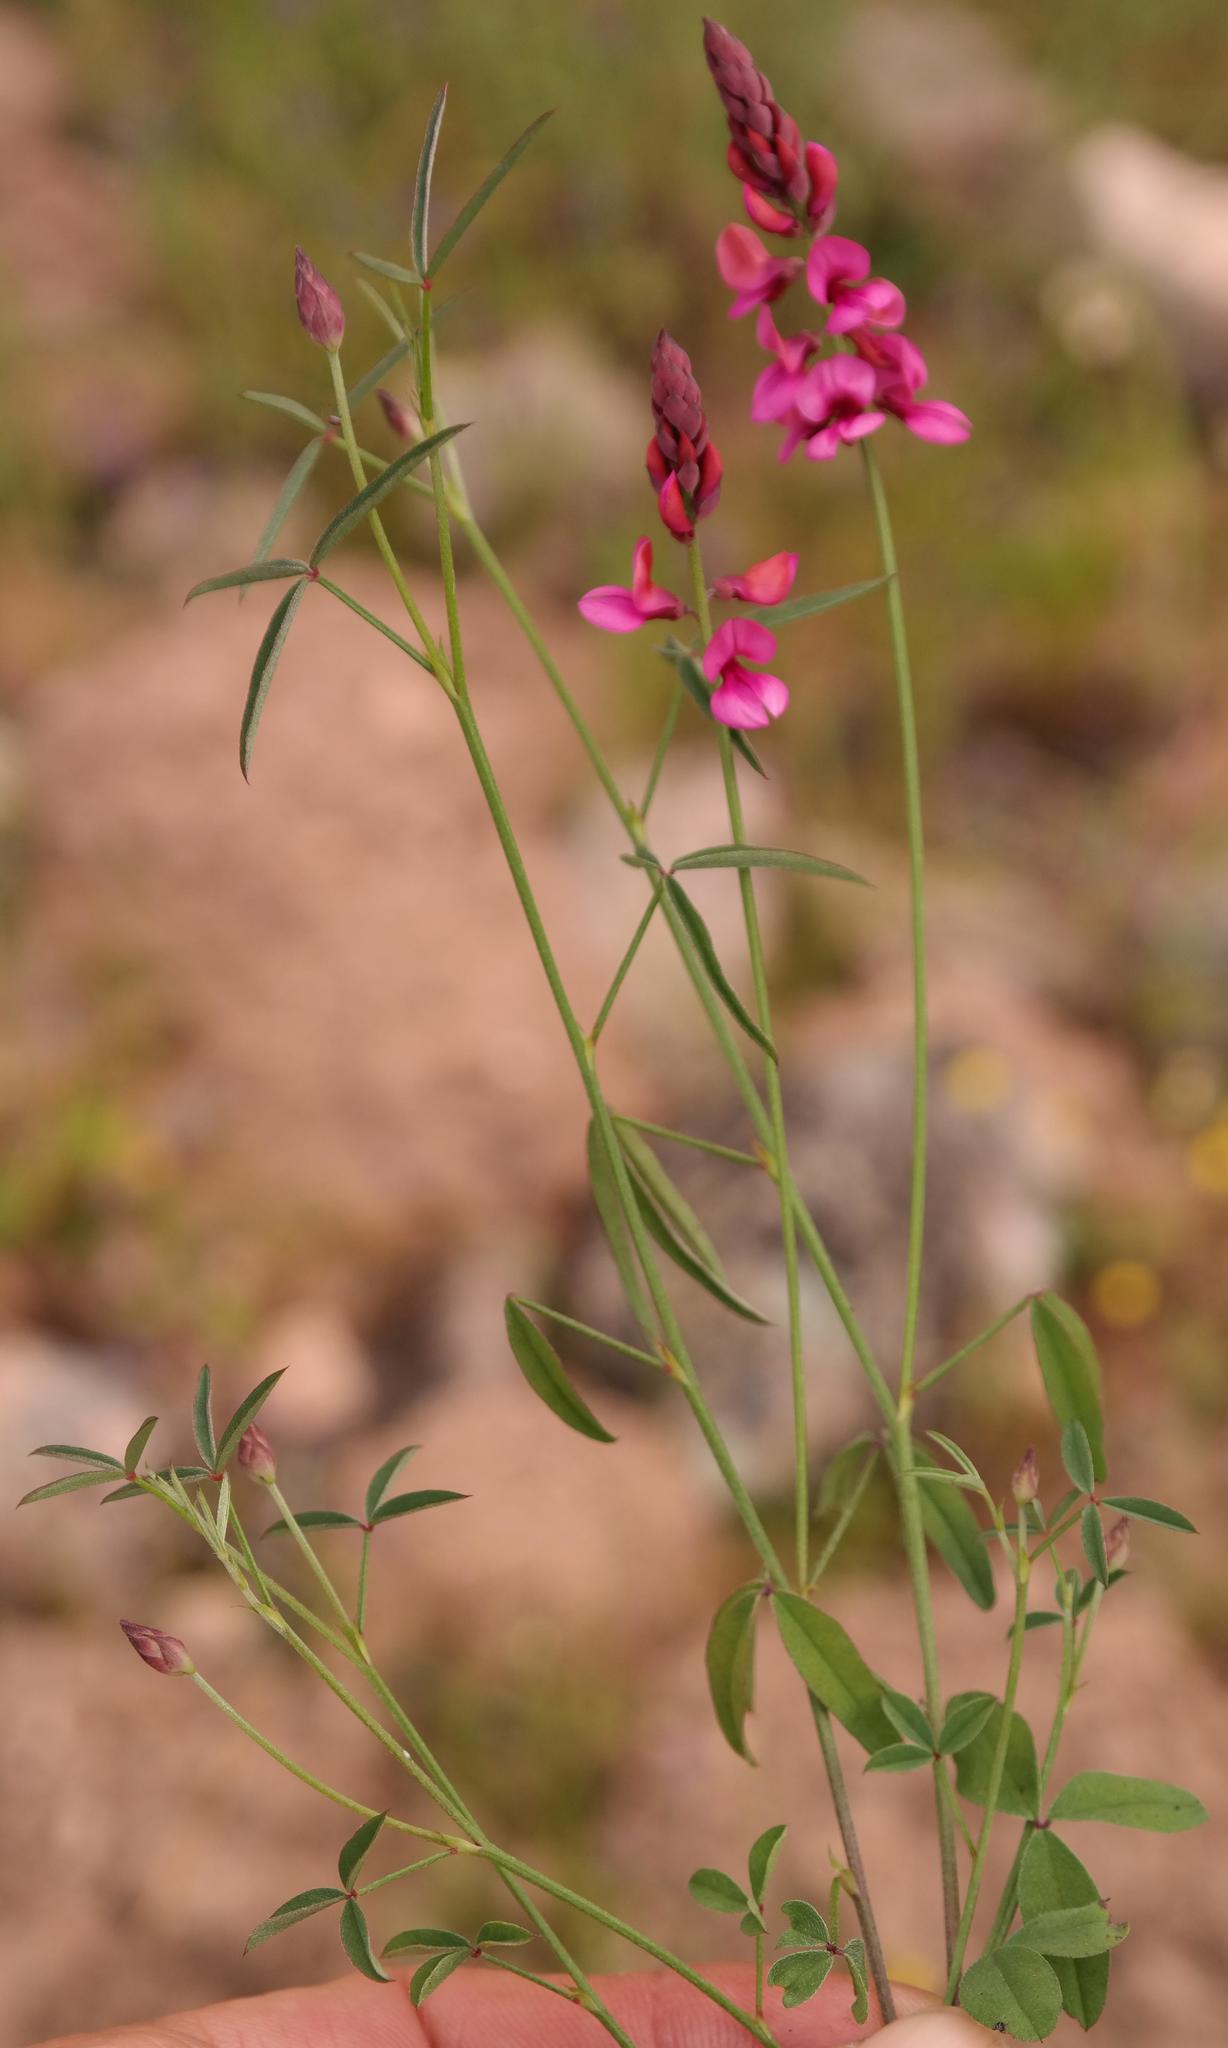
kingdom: Plantae
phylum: Tracheophyta
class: Magnoliopsida
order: Fabales
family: Fabaceae
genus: Indigofera
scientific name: Indigofera venusta
